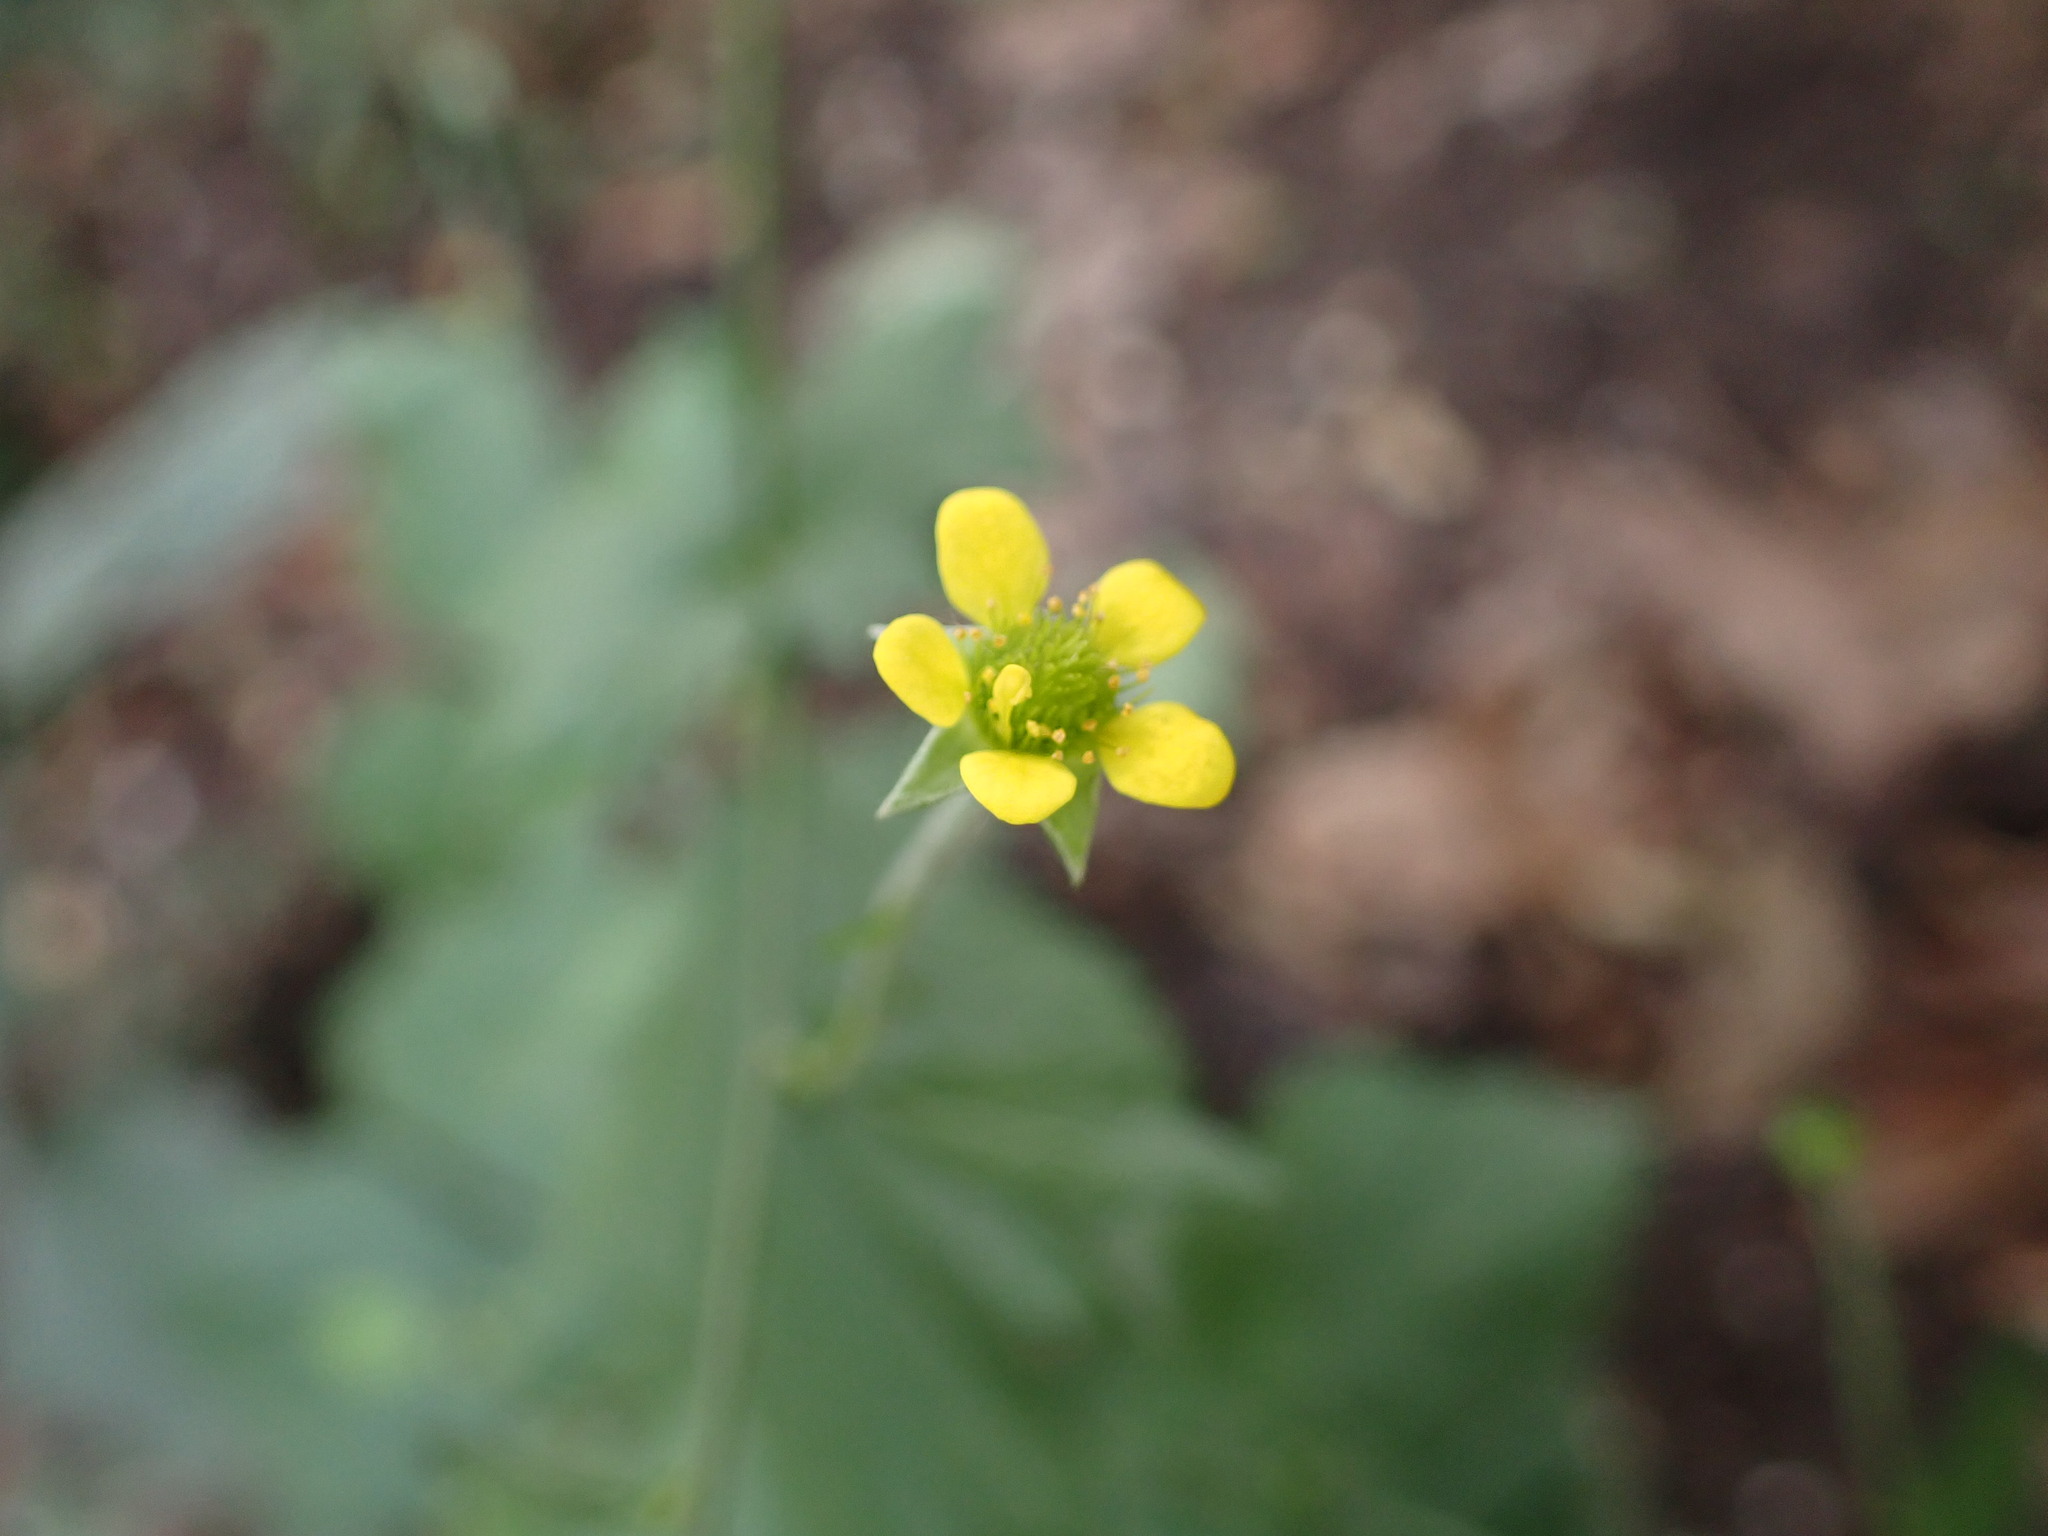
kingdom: Plantae
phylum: Tracheophyta
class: Magnoliopsida
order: Rosales
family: Rosaceae
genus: Geum
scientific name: Geum urbanum
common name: Wood avens
